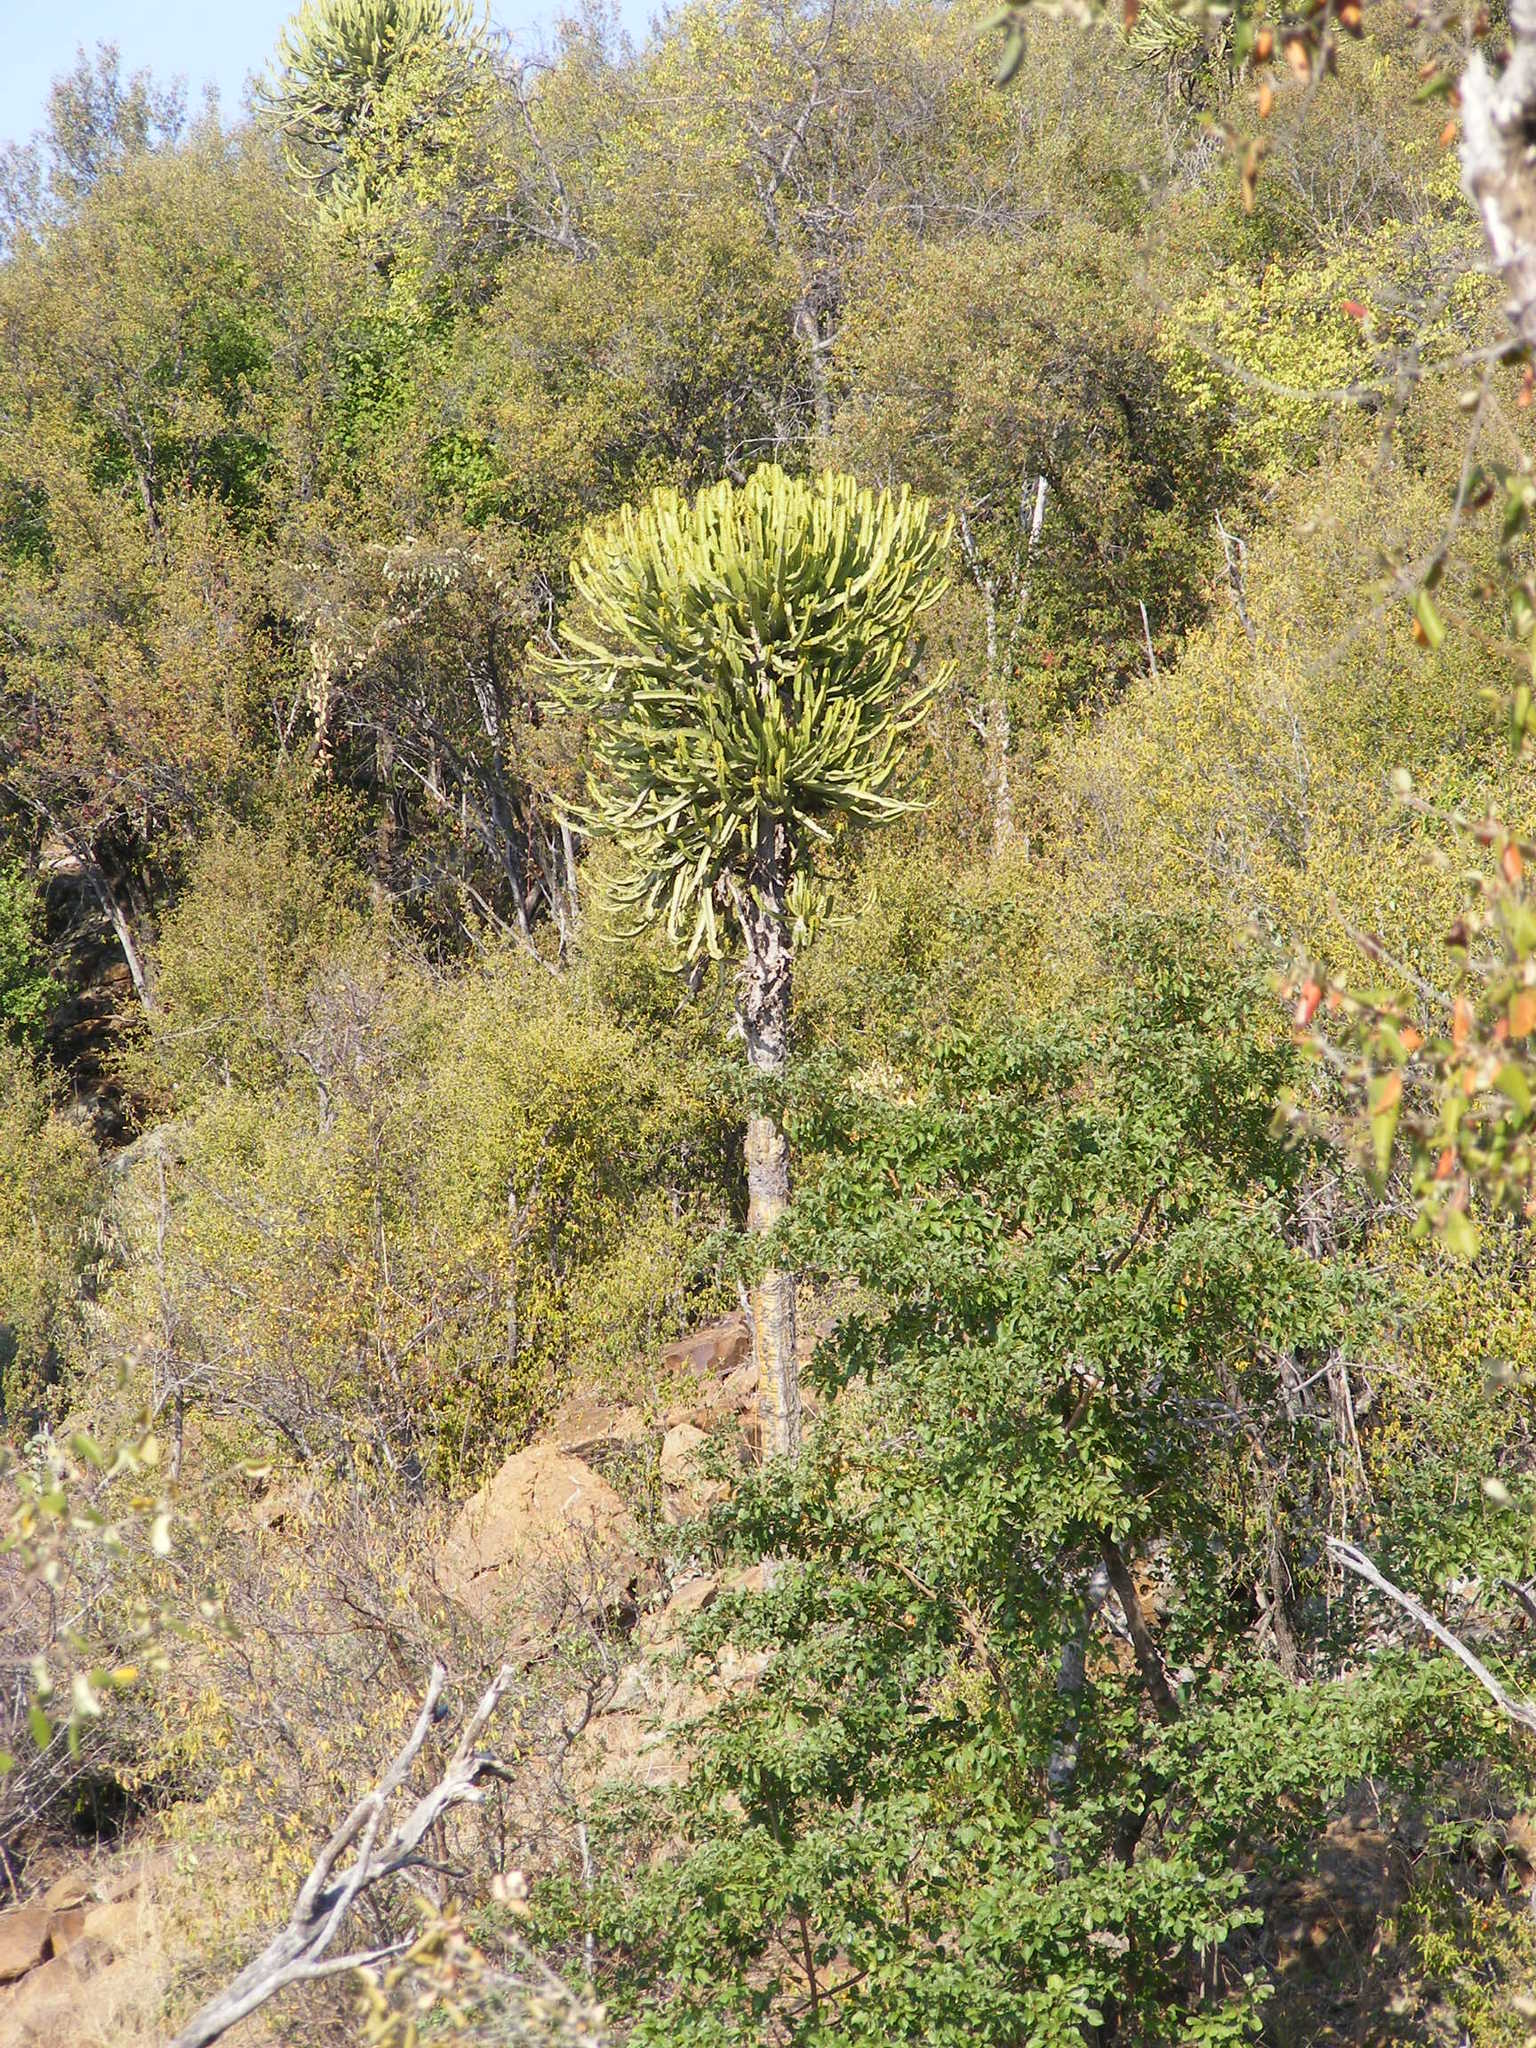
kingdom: Plantae
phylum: Tracheophyta
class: Magnoliopsida
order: Malpighiales
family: Euphorbiaceae
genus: Euphorbia
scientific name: Euphorbia confinalis
